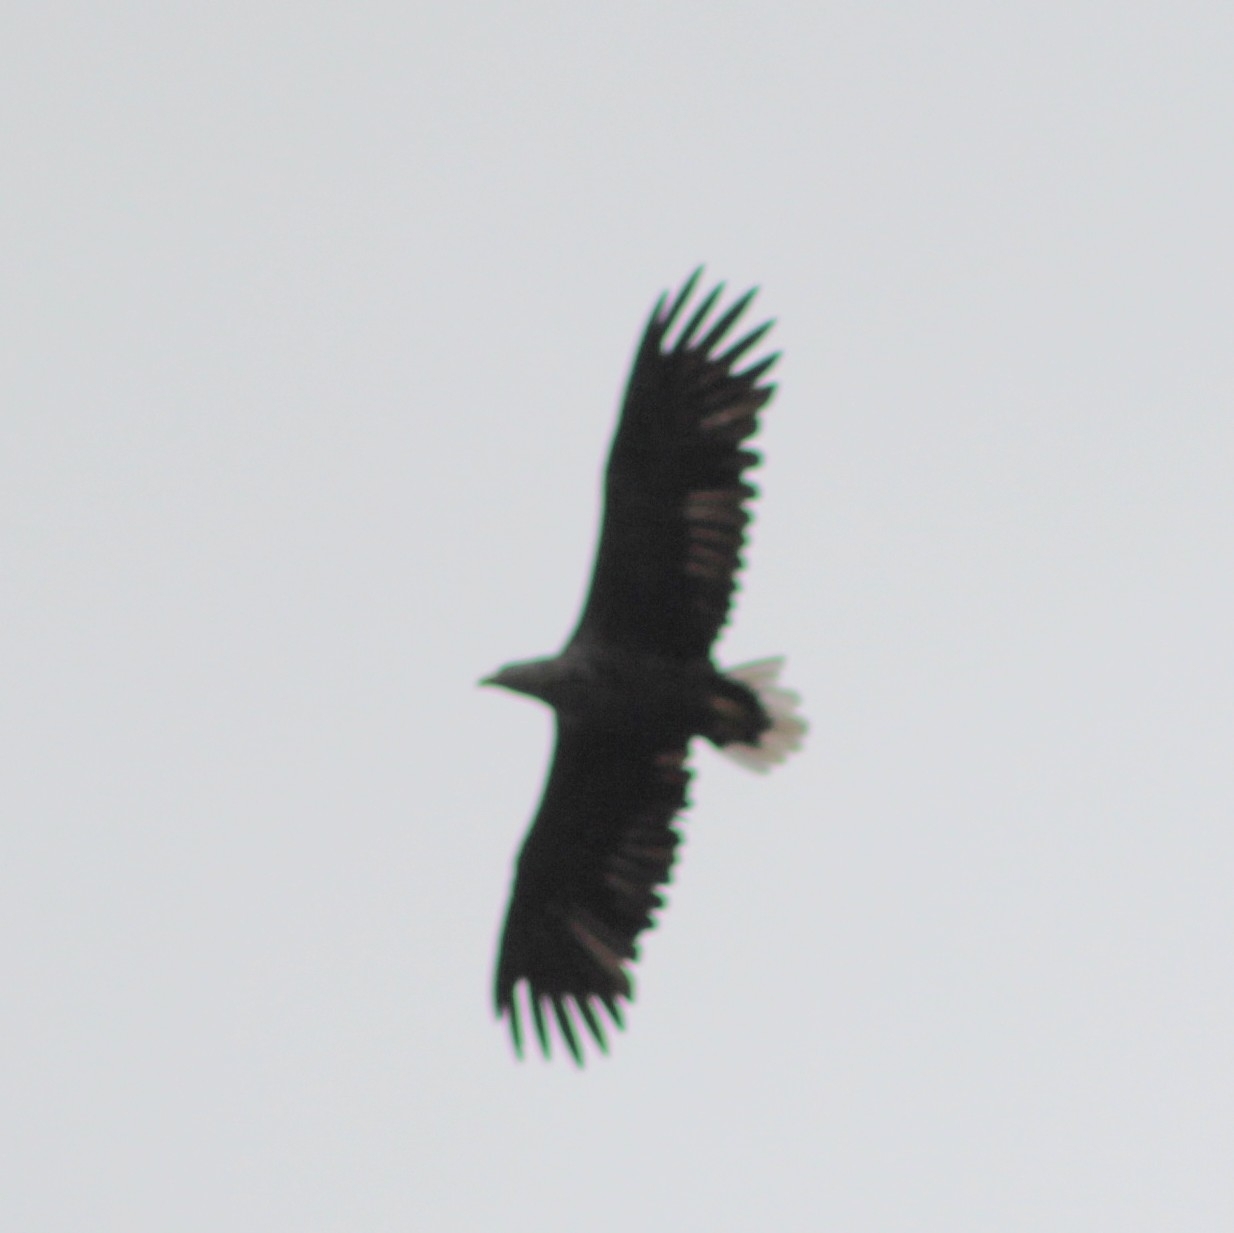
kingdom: Animalia
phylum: Chordata
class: Aves
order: Accipitriformes
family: Accipitridae
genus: Haliaeetus
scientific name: Haliaeetus albicilla
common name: White-tailed eagle
